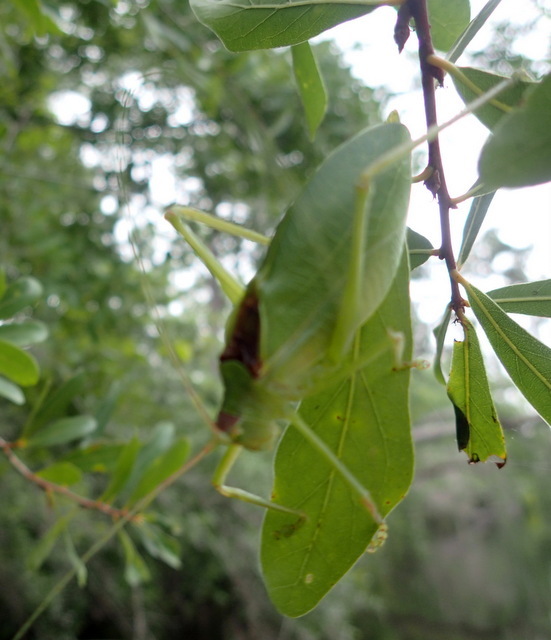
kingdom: Animalia
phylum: Arthropoda
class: Insecta
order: Orthoptera
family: Tettigoniidae
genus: Pterophylla
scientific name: Pterophylla camellifolia
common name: Common true katydid
